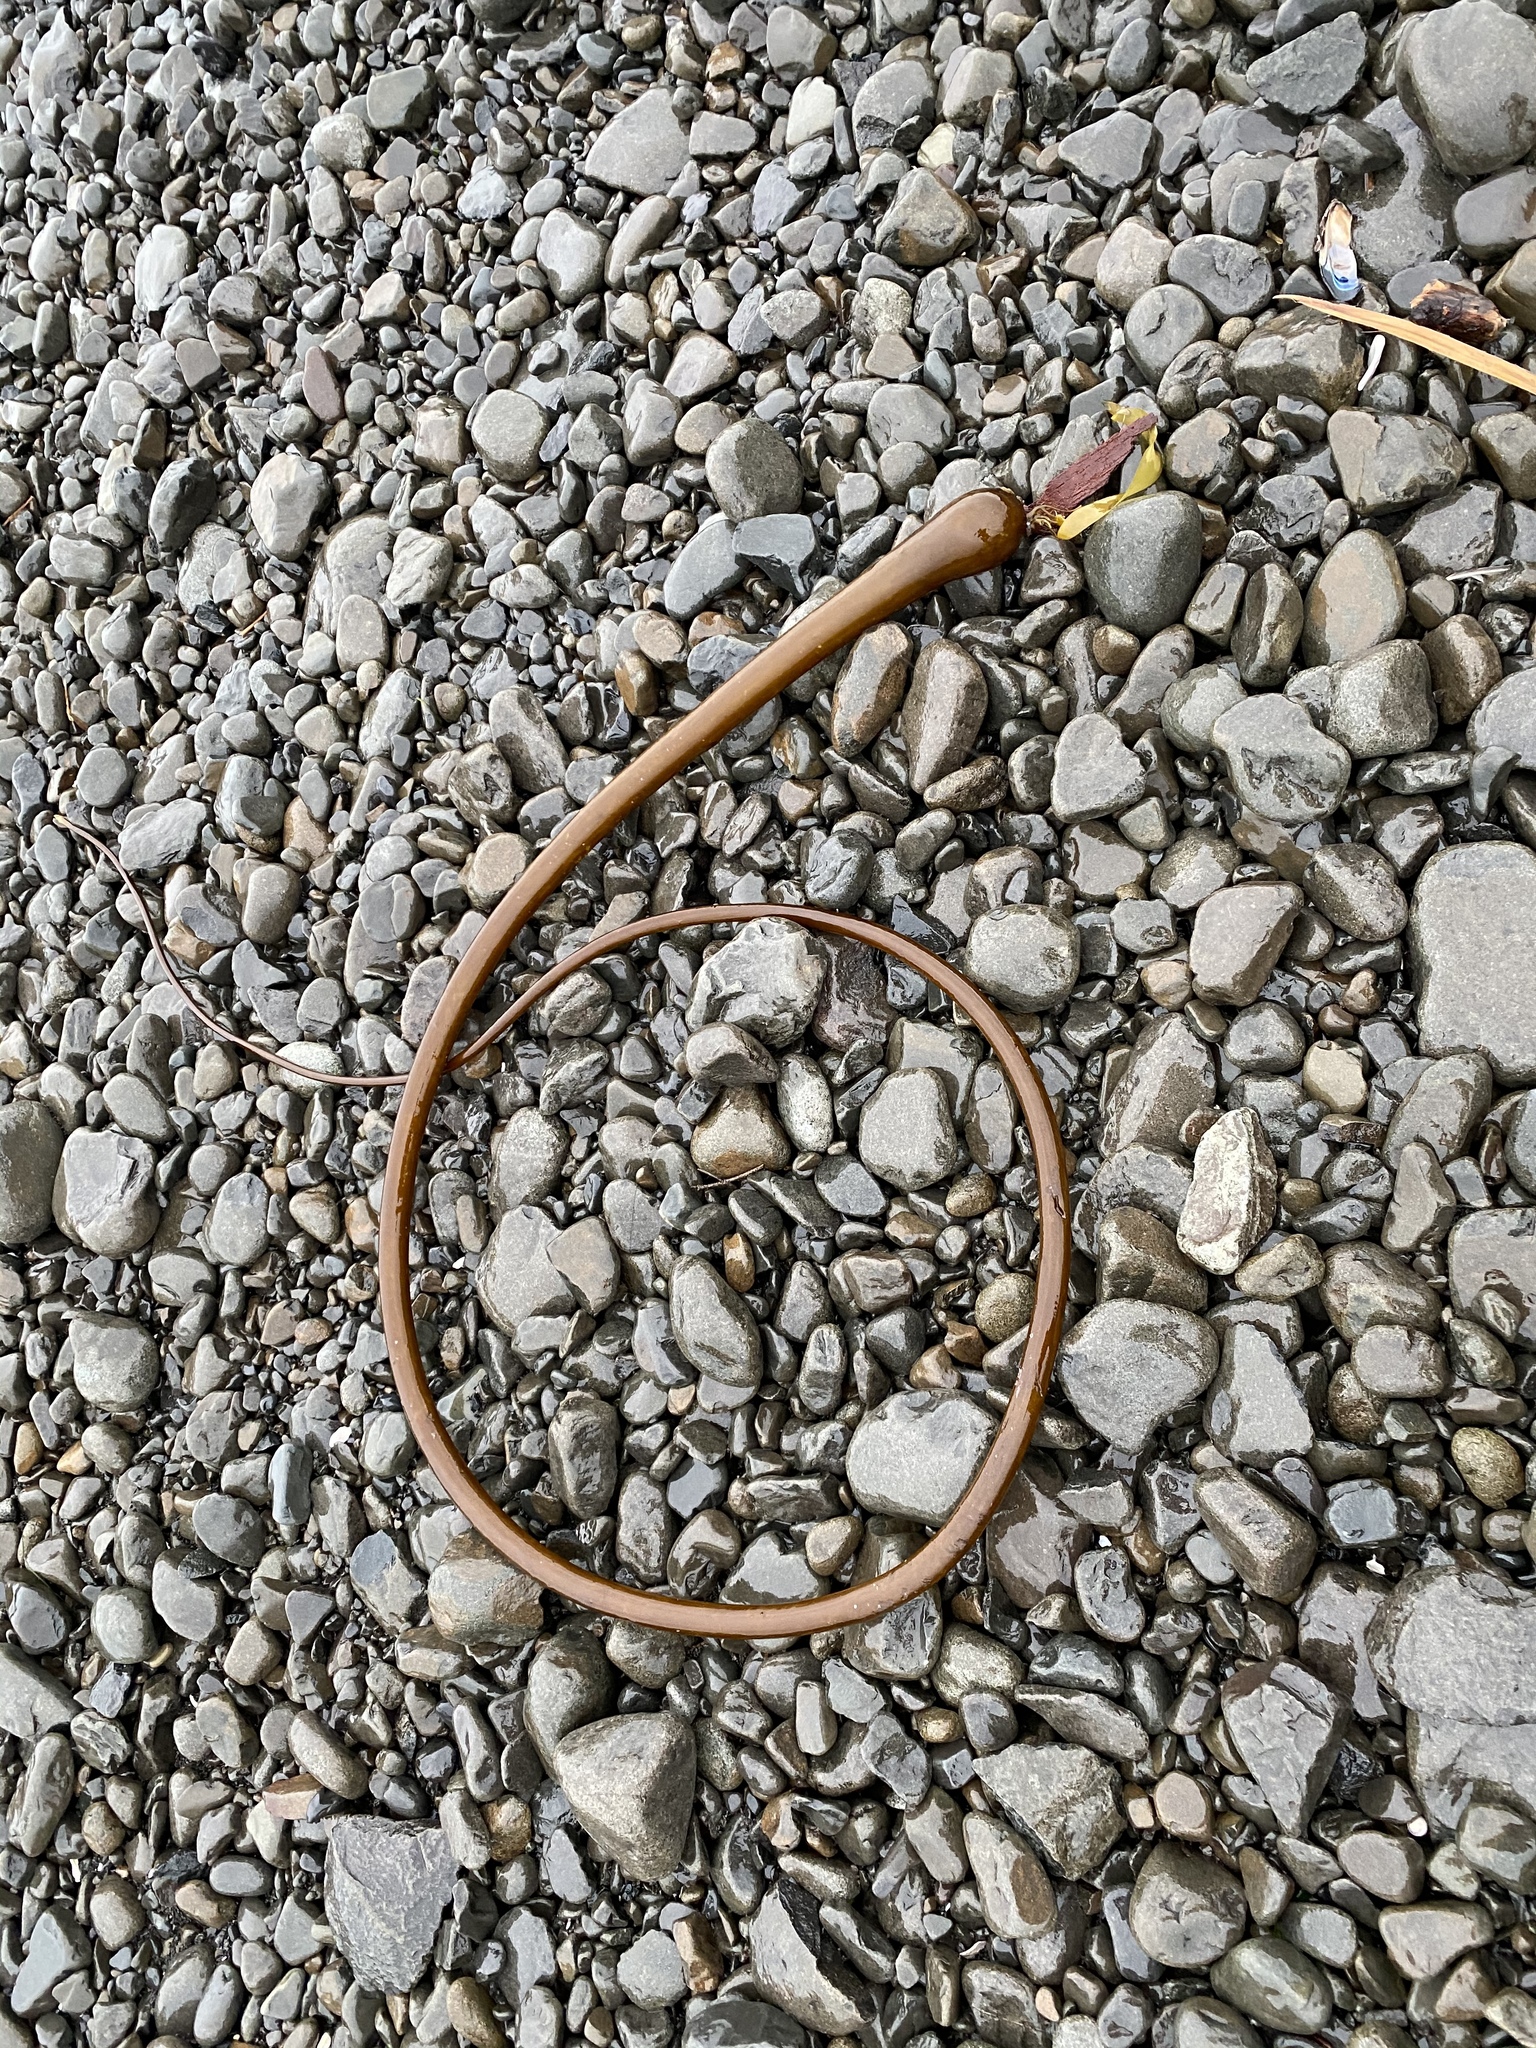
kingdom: Chromista
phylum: Ochrophyta
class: Phaeophyceae
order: Laminariales
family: Laminariaceae
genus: Nereocystis
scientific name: Nereocystis luetkeana
